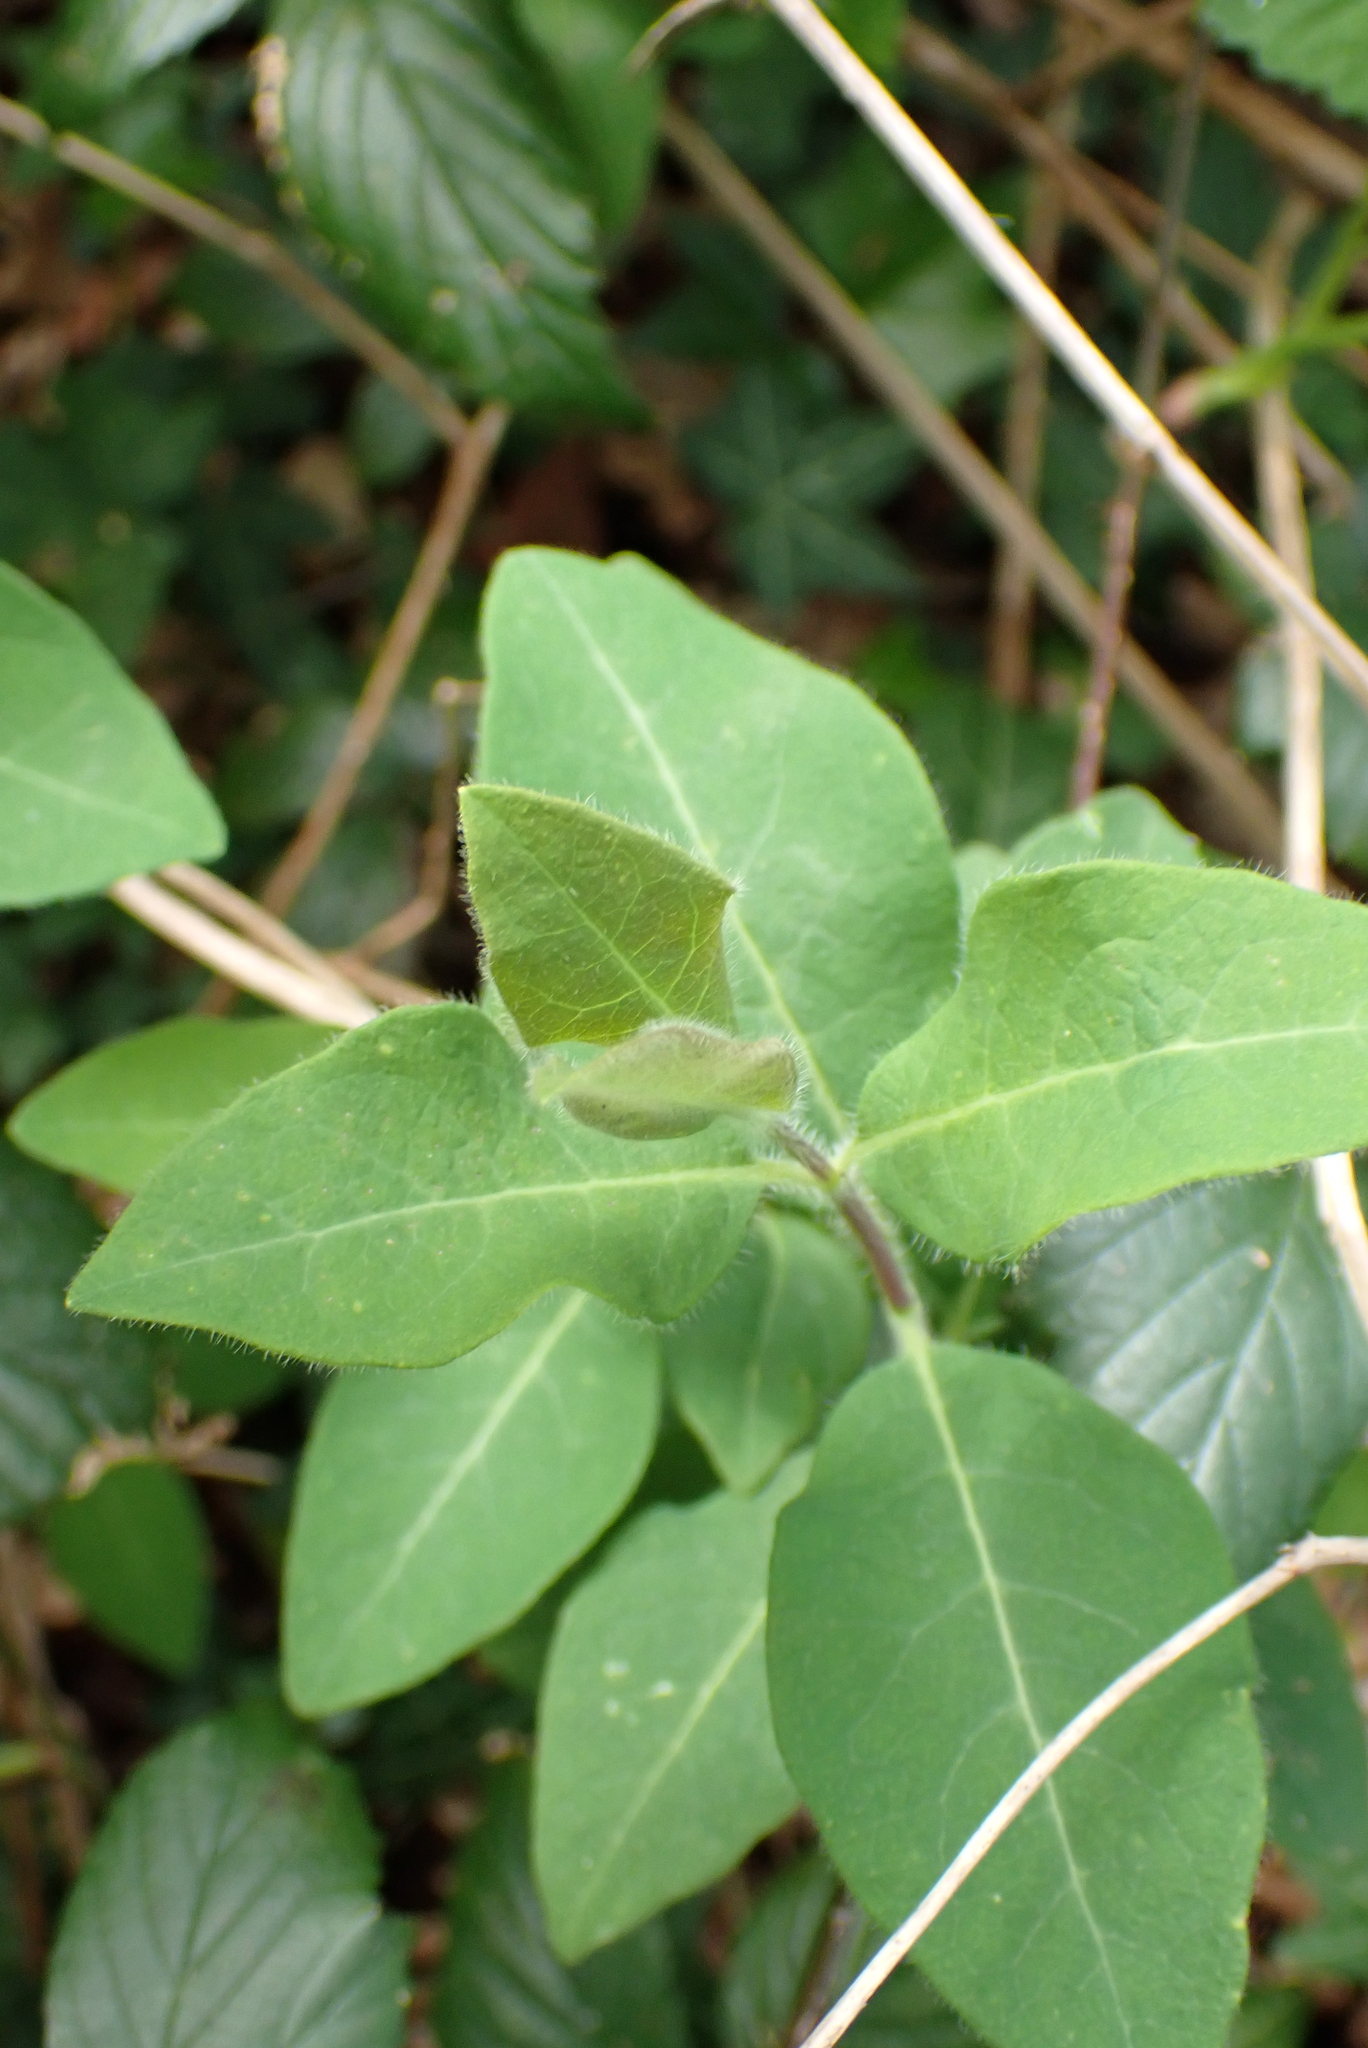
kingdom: Plantae
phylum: Tracheophyta
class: Magnoliopsida
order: Dipsacales
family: Caprifoliaceae
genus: Lonicera
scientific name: Lonicera periclymenum
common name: European honeysuckle
